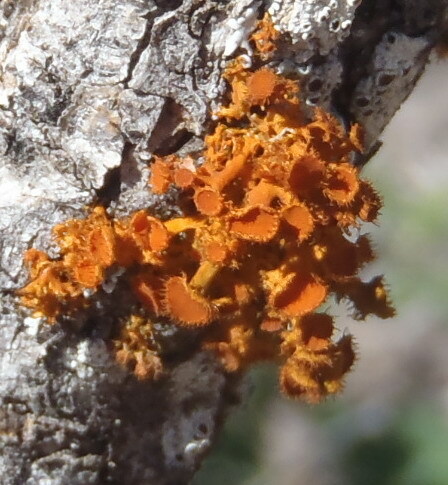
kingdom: Fungi
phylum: Ascomycota
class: Lecanoromycetes
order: Teloschistales
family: Teloschistaceae
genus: Niorma
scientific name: Niorma chrysophthalma
